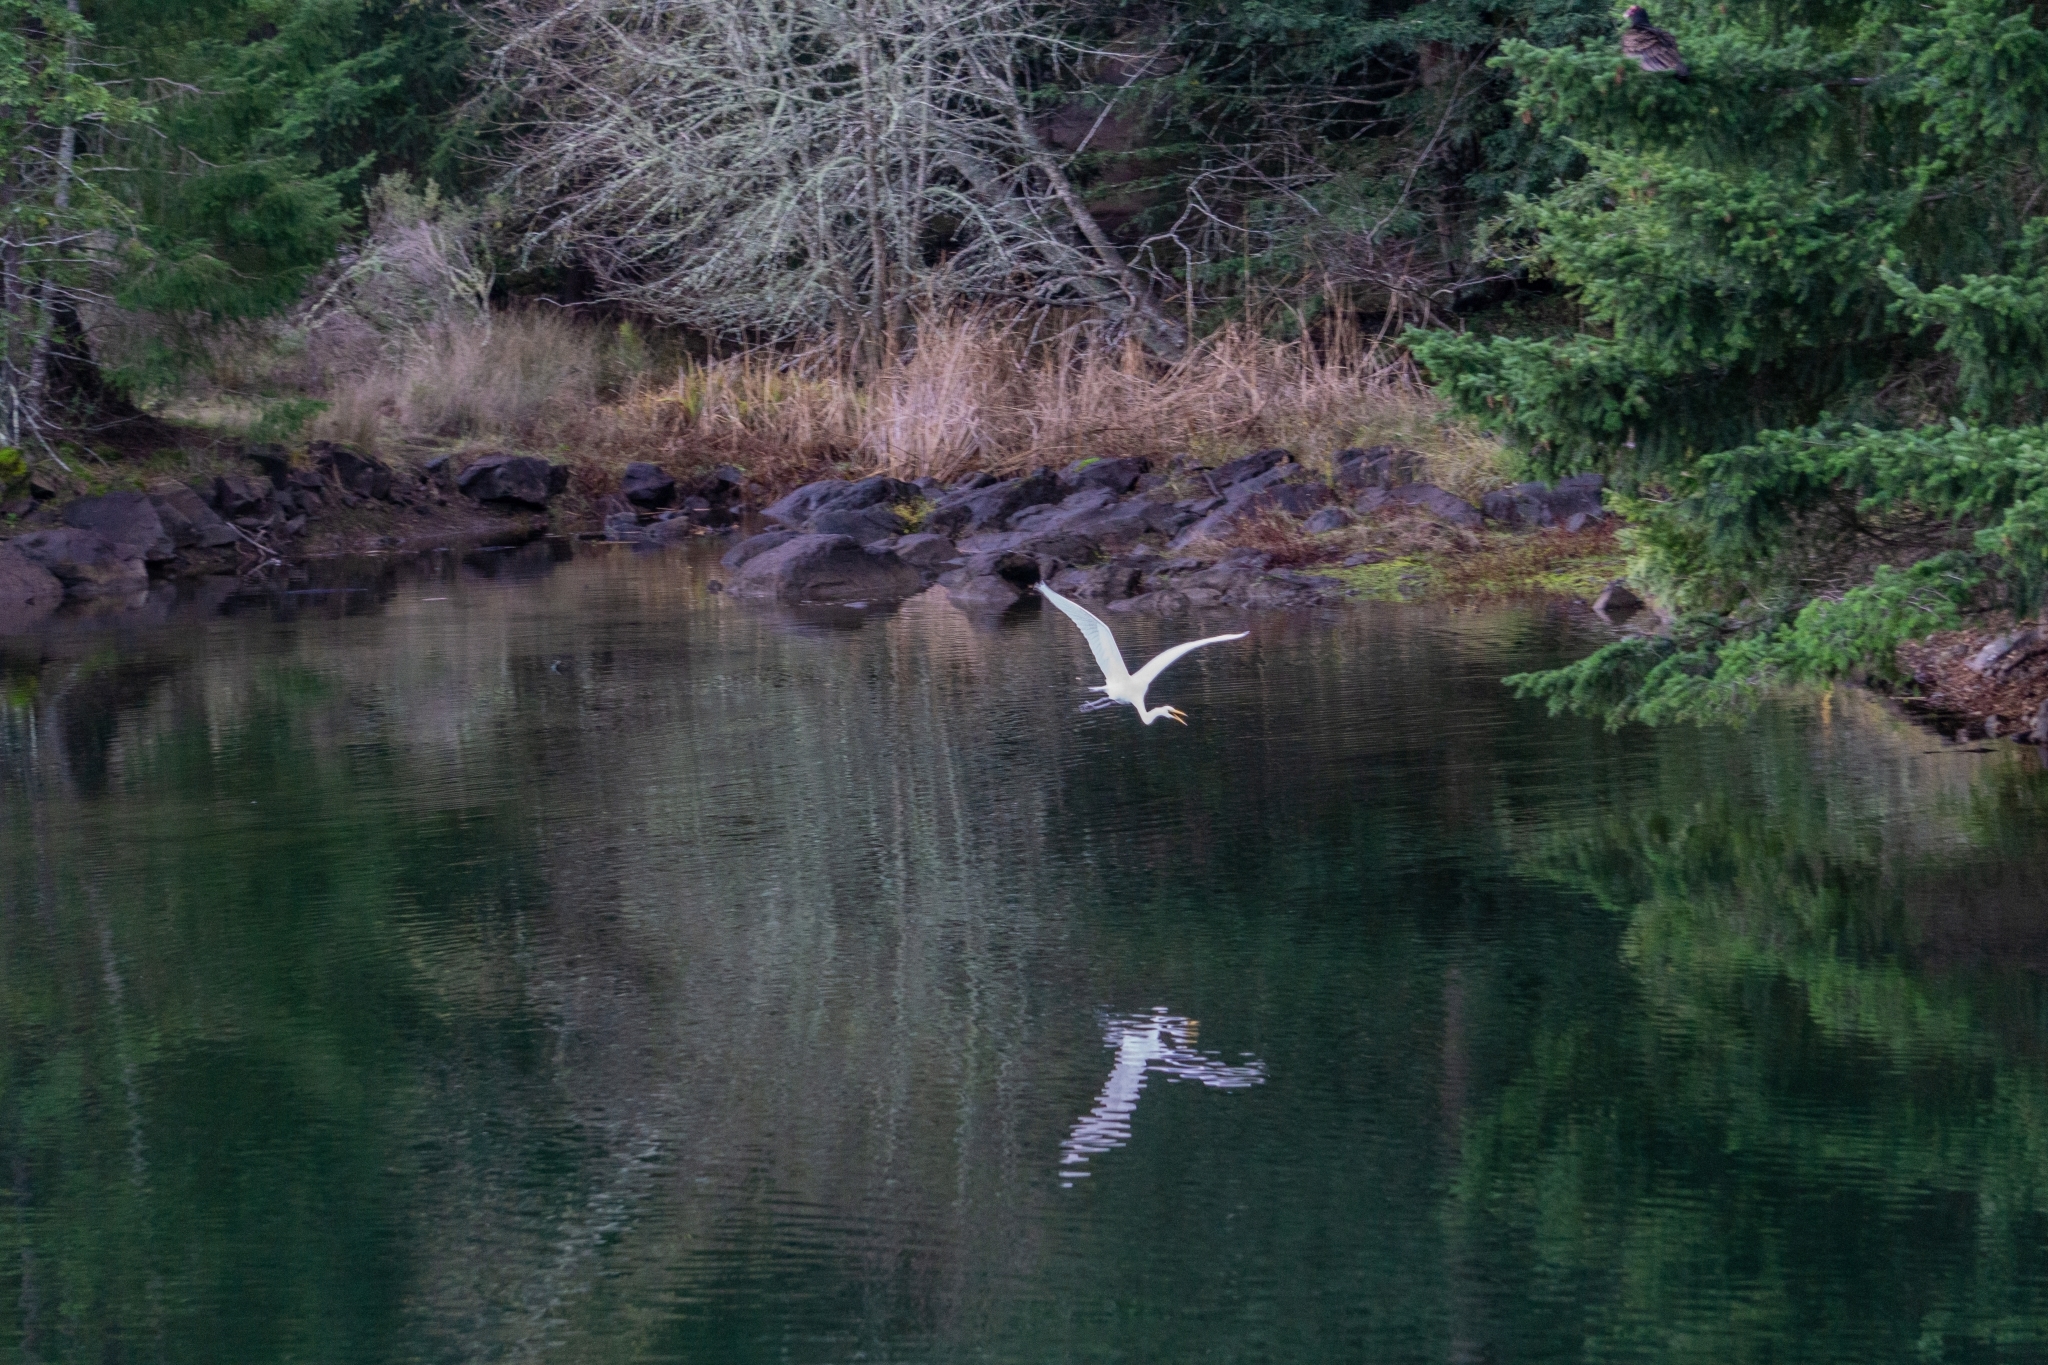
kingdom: Animalia
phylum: Chordata
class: Aves
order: Pelecaniformes
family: Ardeidae
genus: Ardea
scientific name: Ardea alba
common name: Great egret
